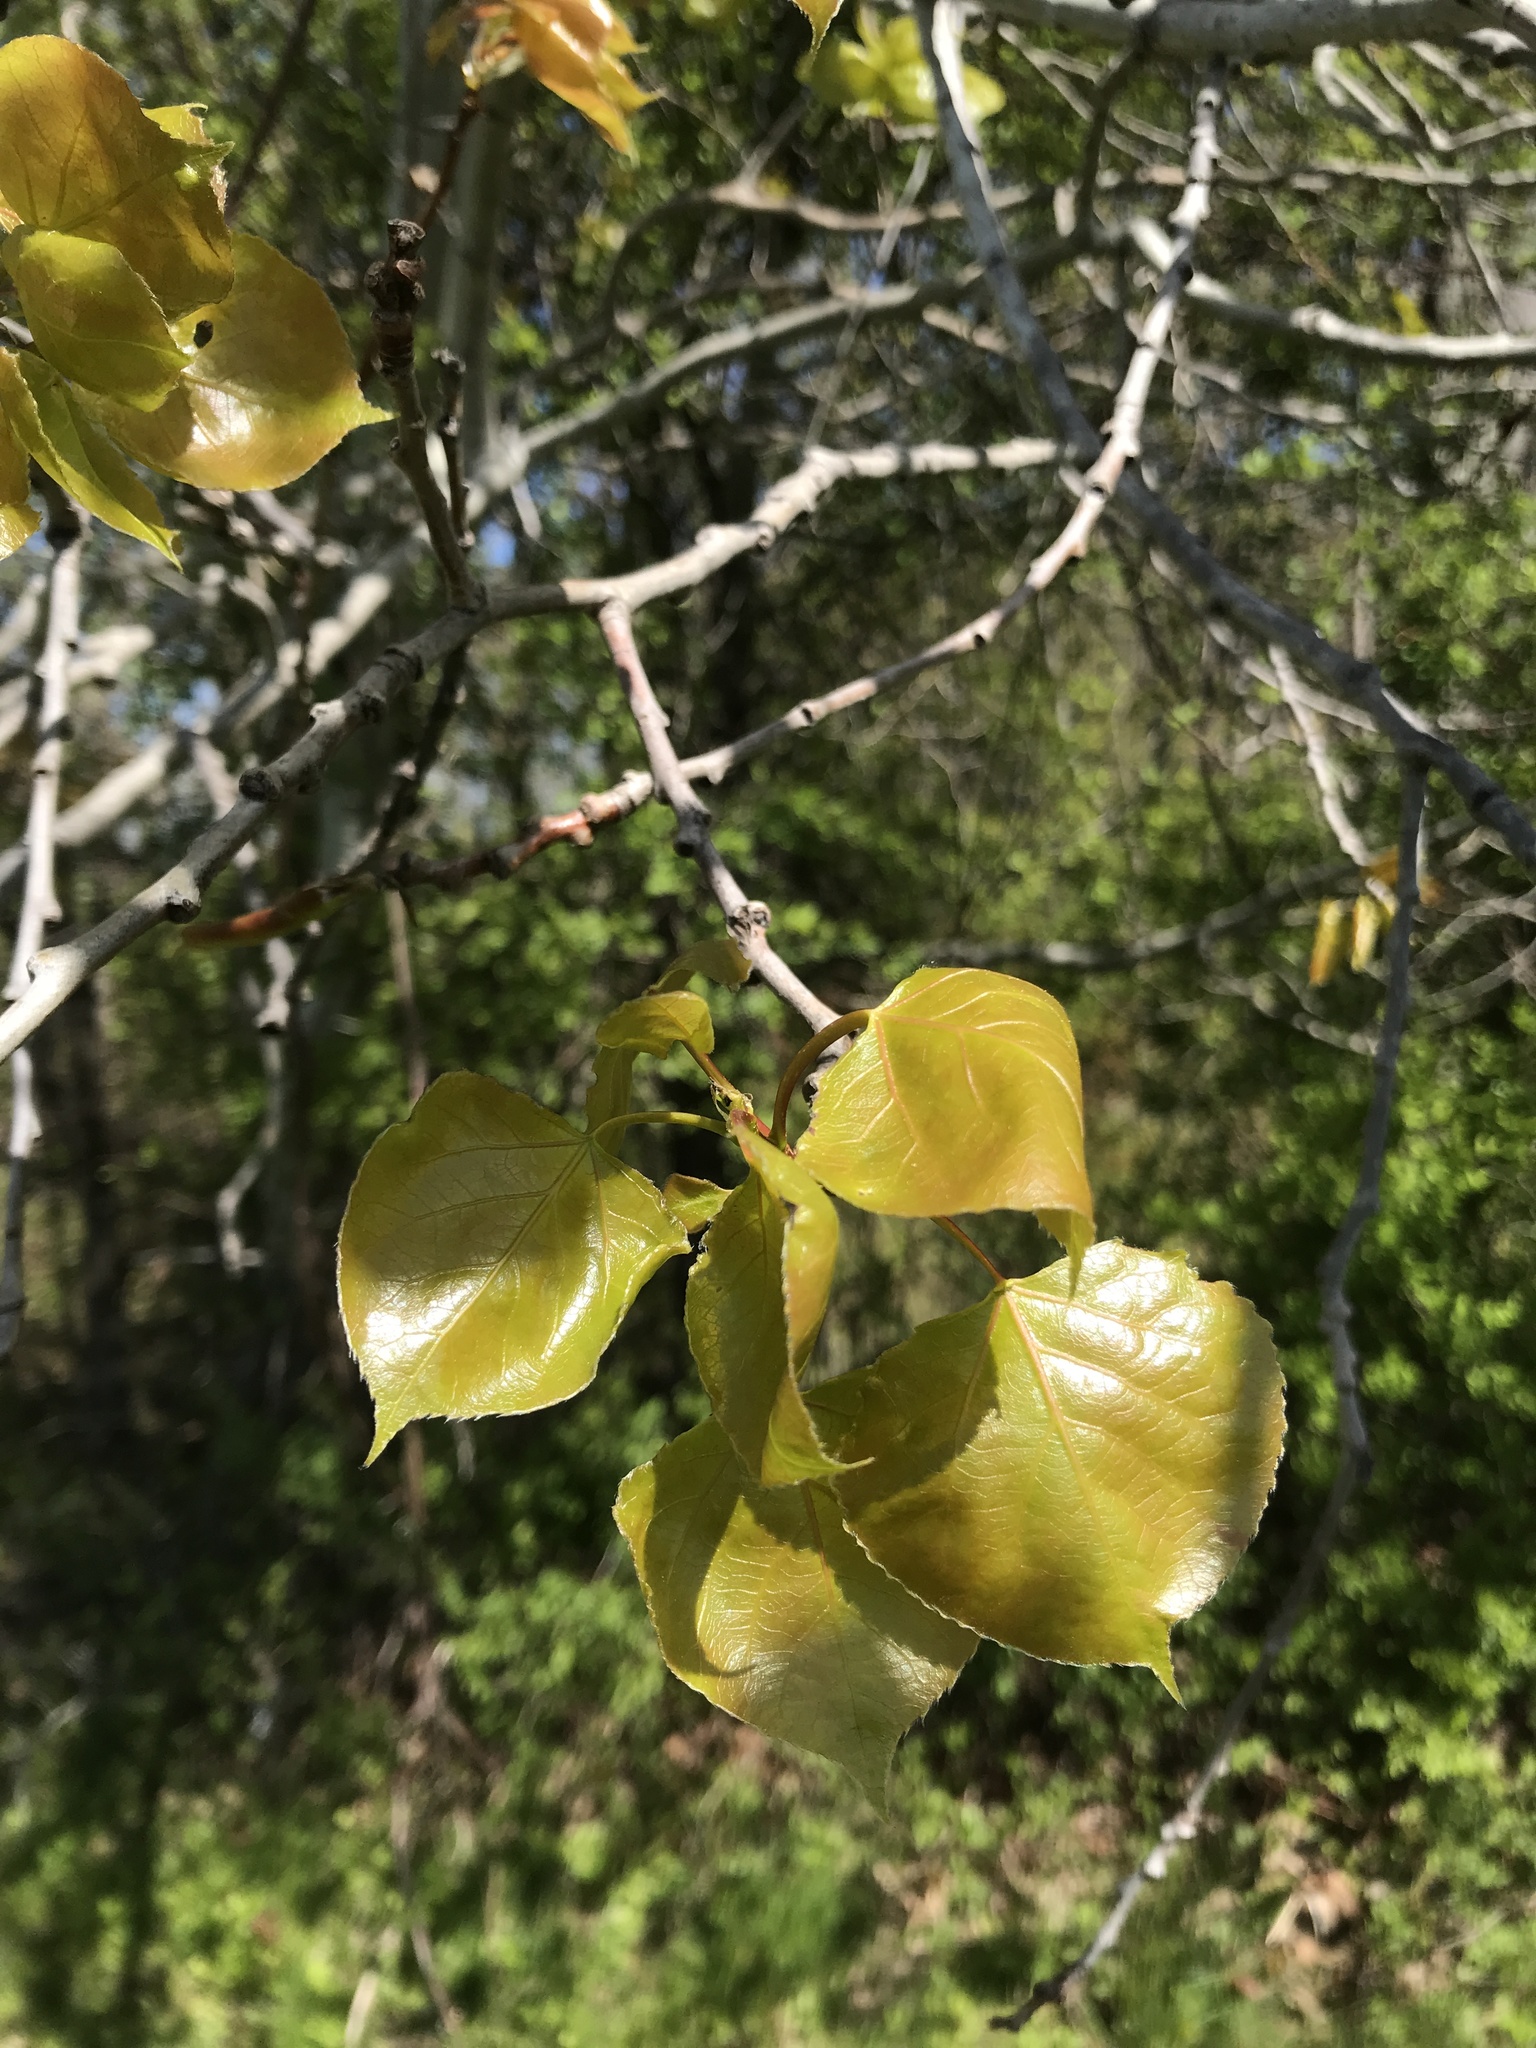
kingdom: Plantae
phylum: Tracheophyta
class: Magnoliopsida
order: Malpighiales
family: Salicaceae
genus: Populus
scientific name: Populus tremuloides
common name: Quaking aspen
